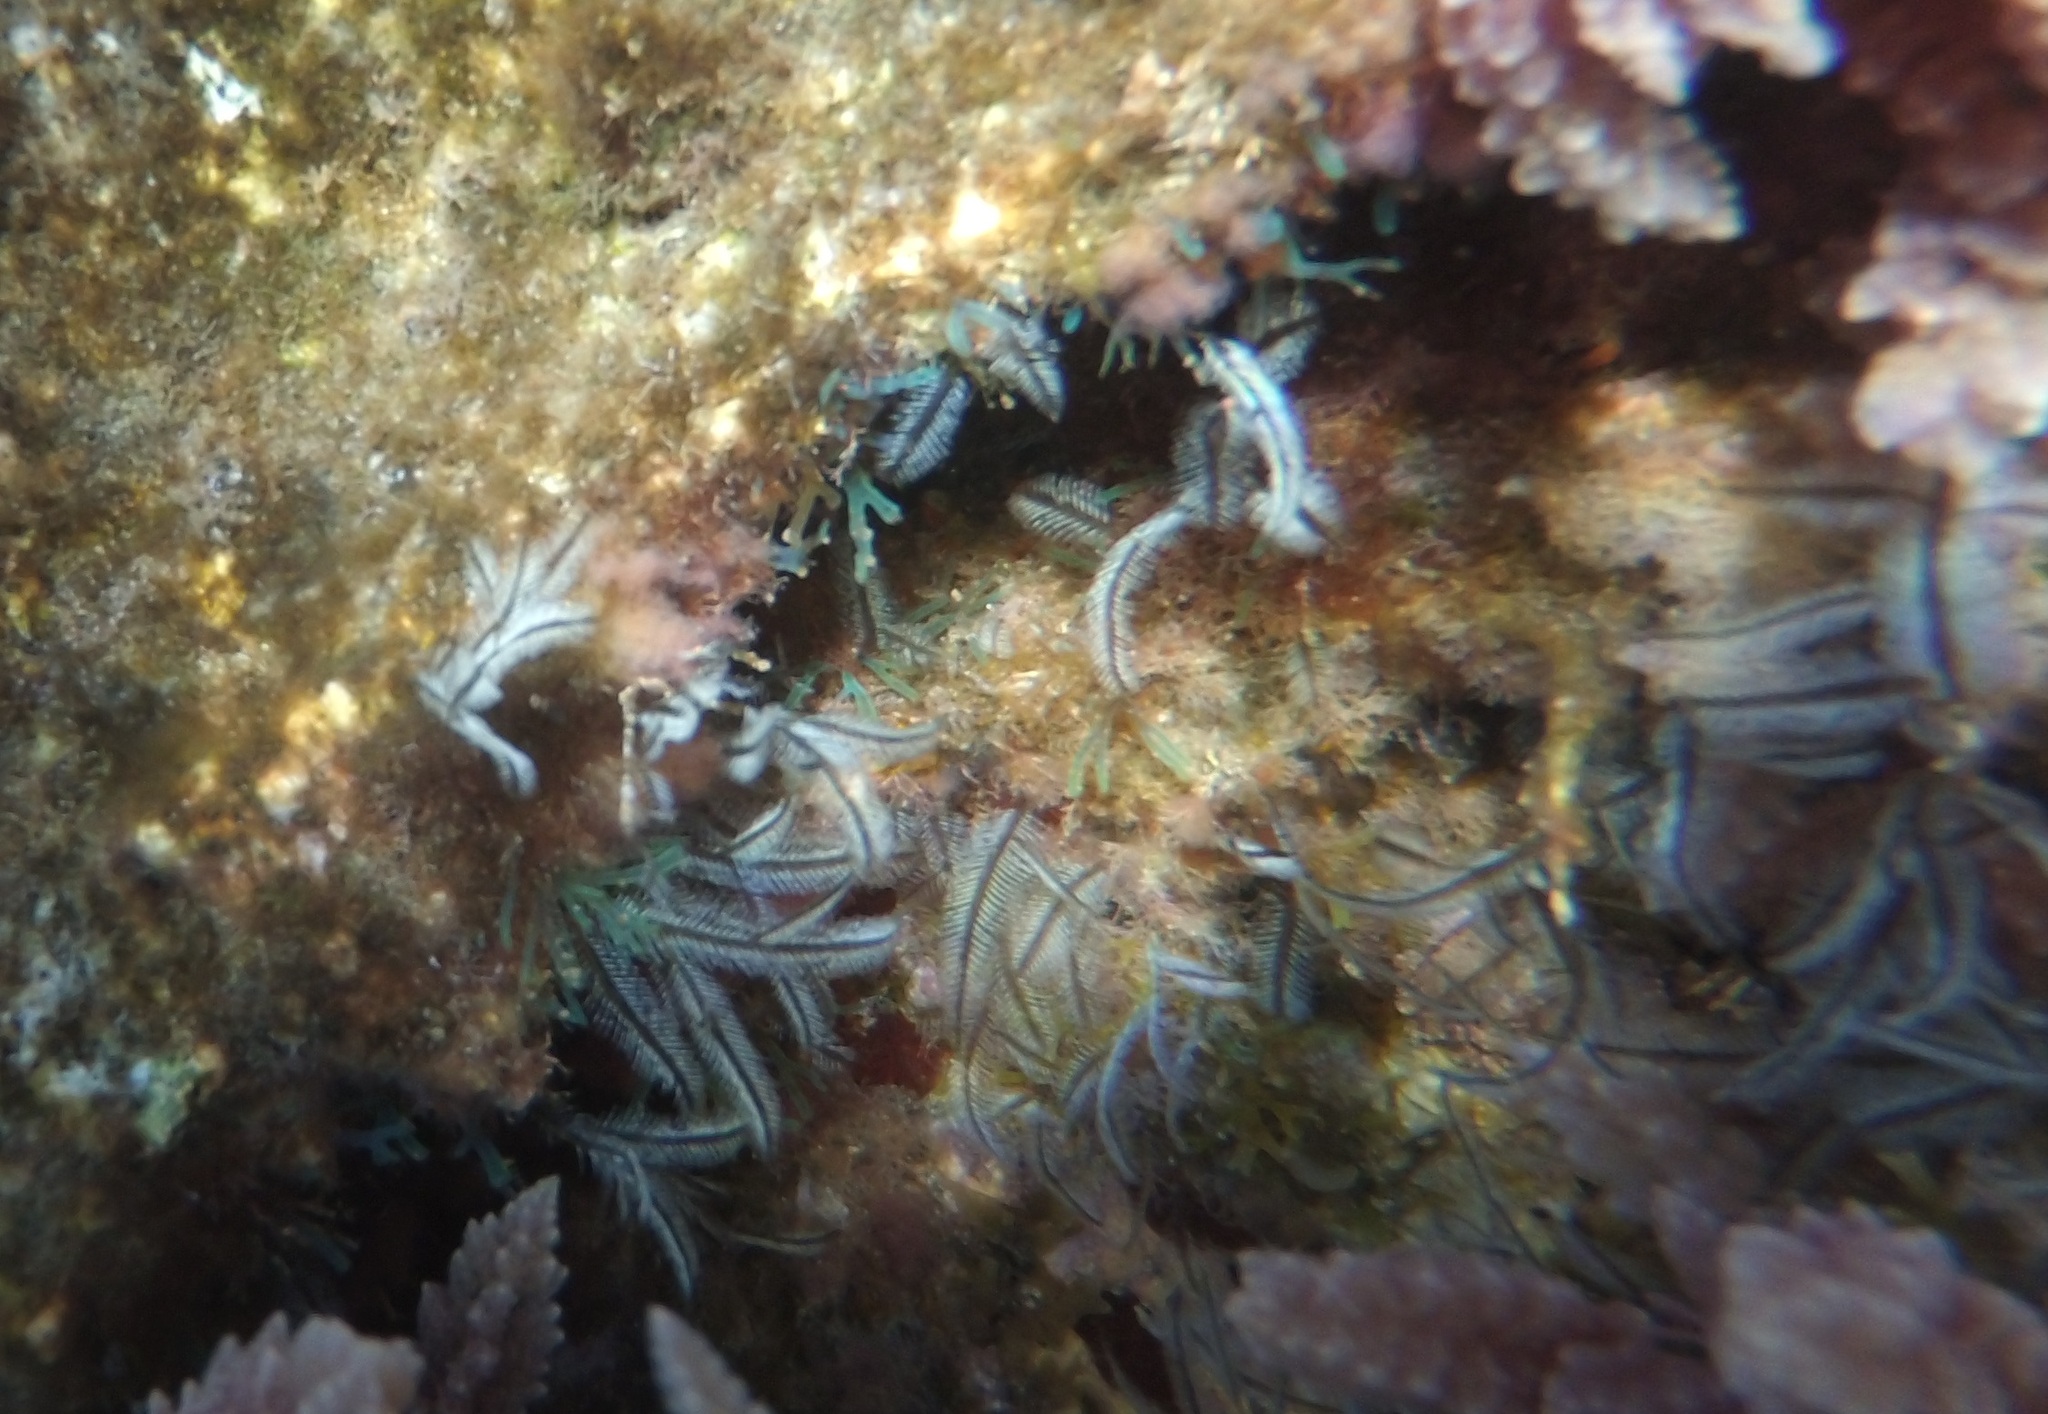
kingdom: Animalia
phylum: Cnidaria
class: Hydrozoa
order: Leptothecata
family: Aglaopheniidae
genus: Macrorhynchia
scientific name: Macrorhynchia philippina
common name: Stinging hydroid
